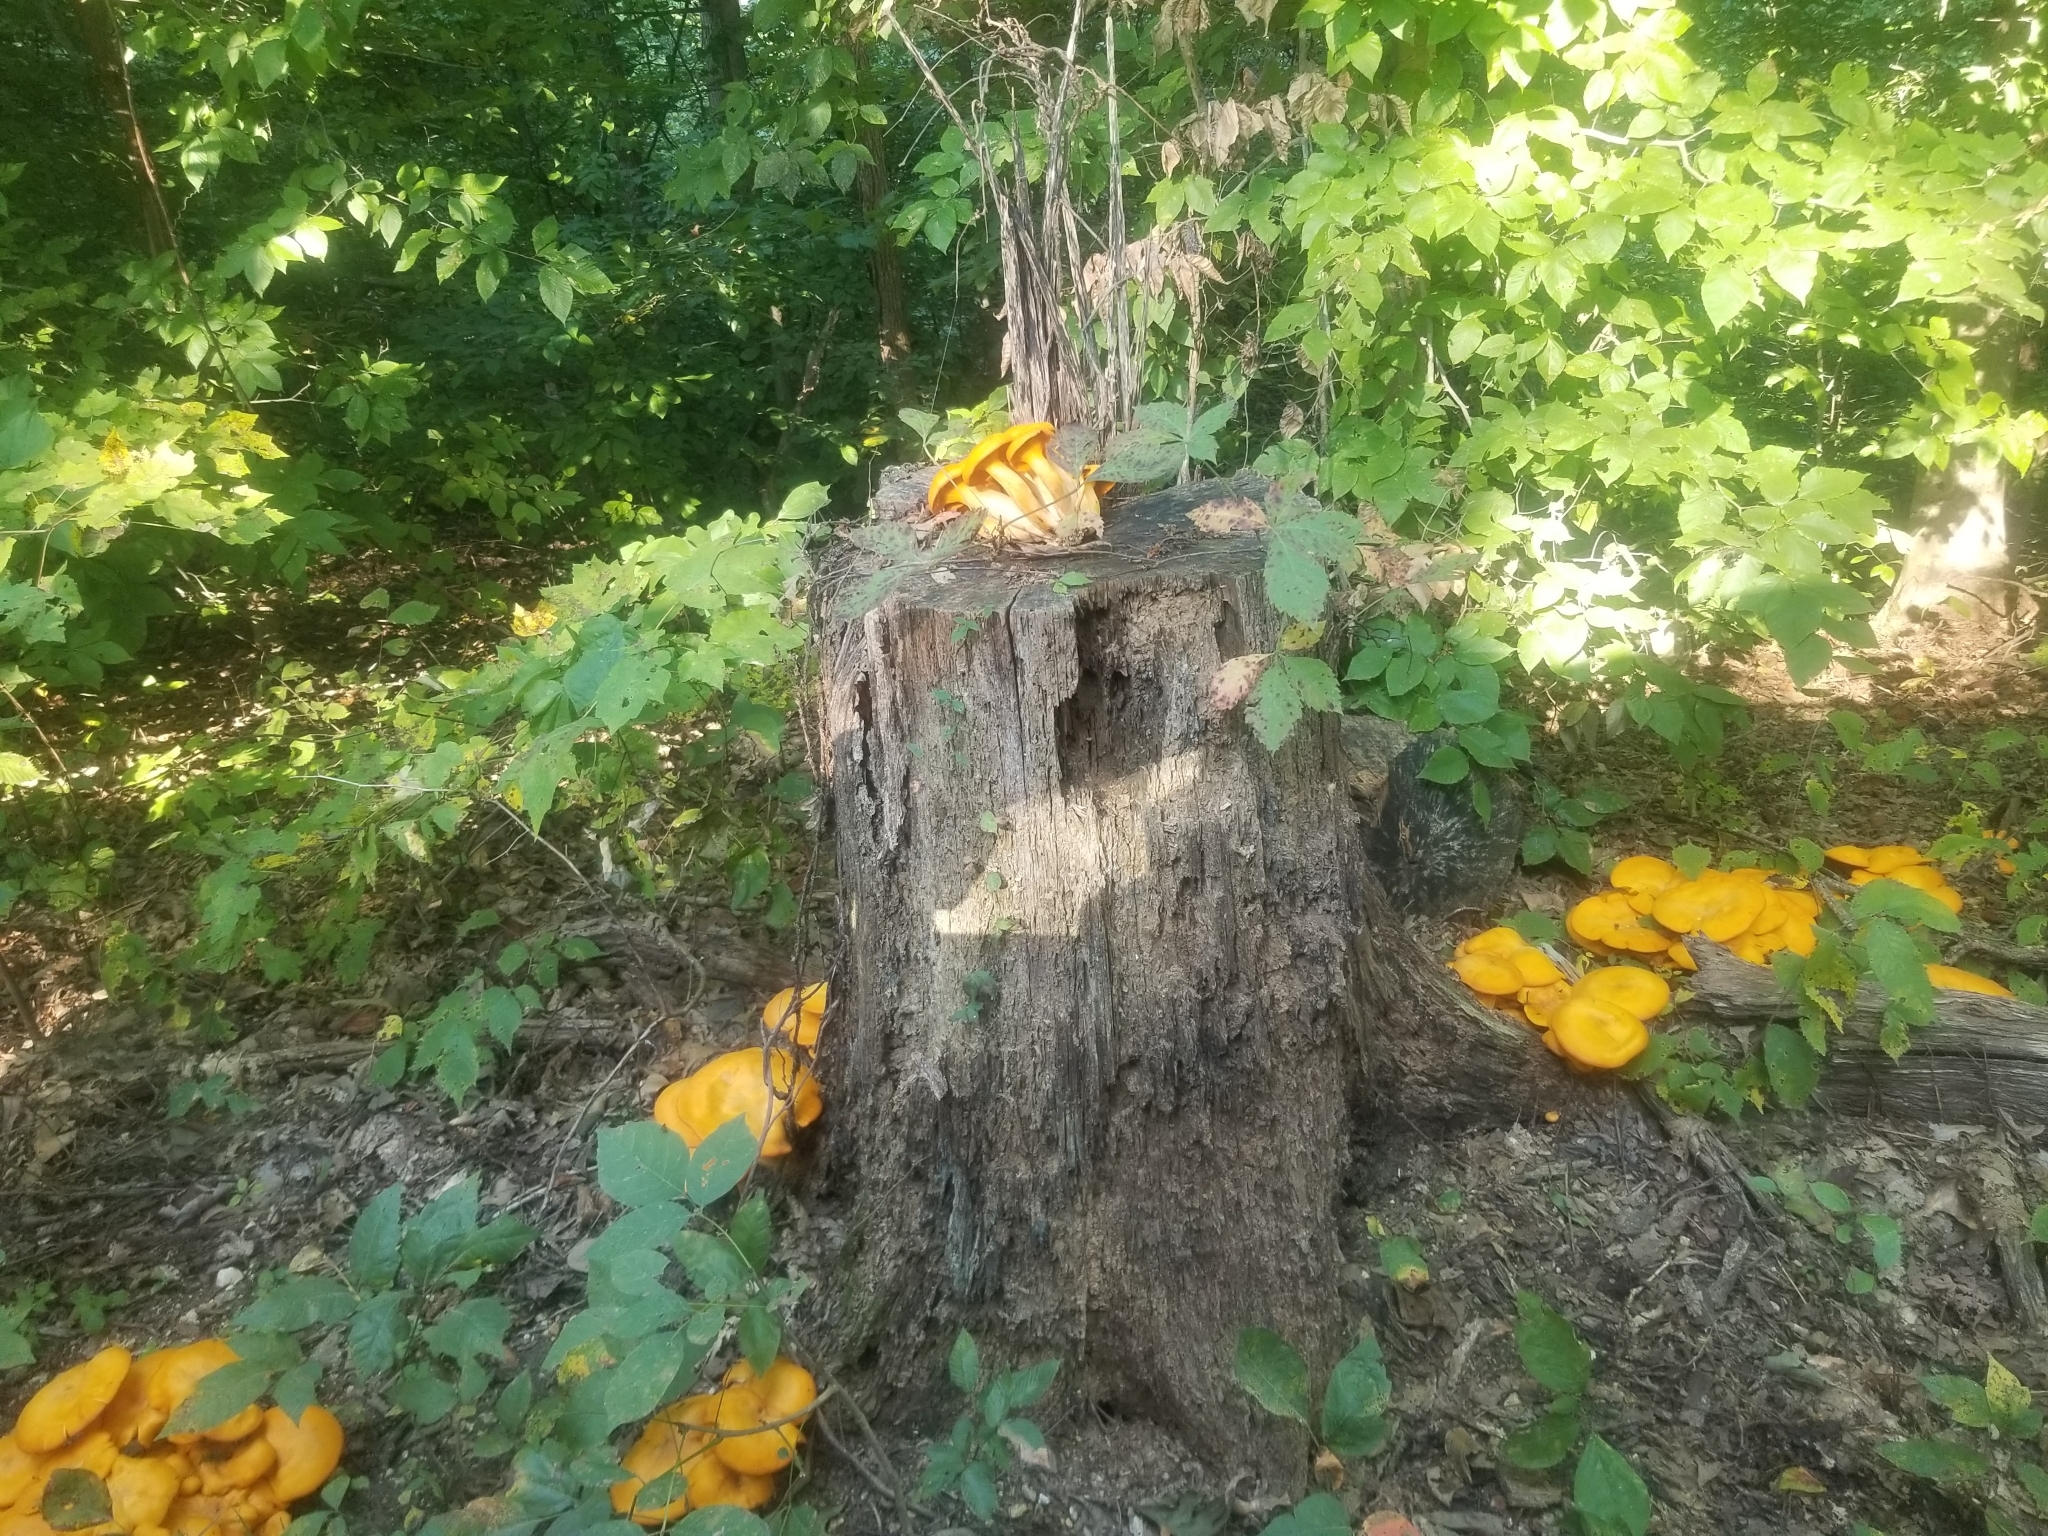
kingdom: Fungi
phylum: Basidiomycota
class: Agaricomycetes
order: Agaricales
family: Omphalotaceae
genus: Omphalotus
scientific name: Omphalotus illudens
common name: Jack o lantern
